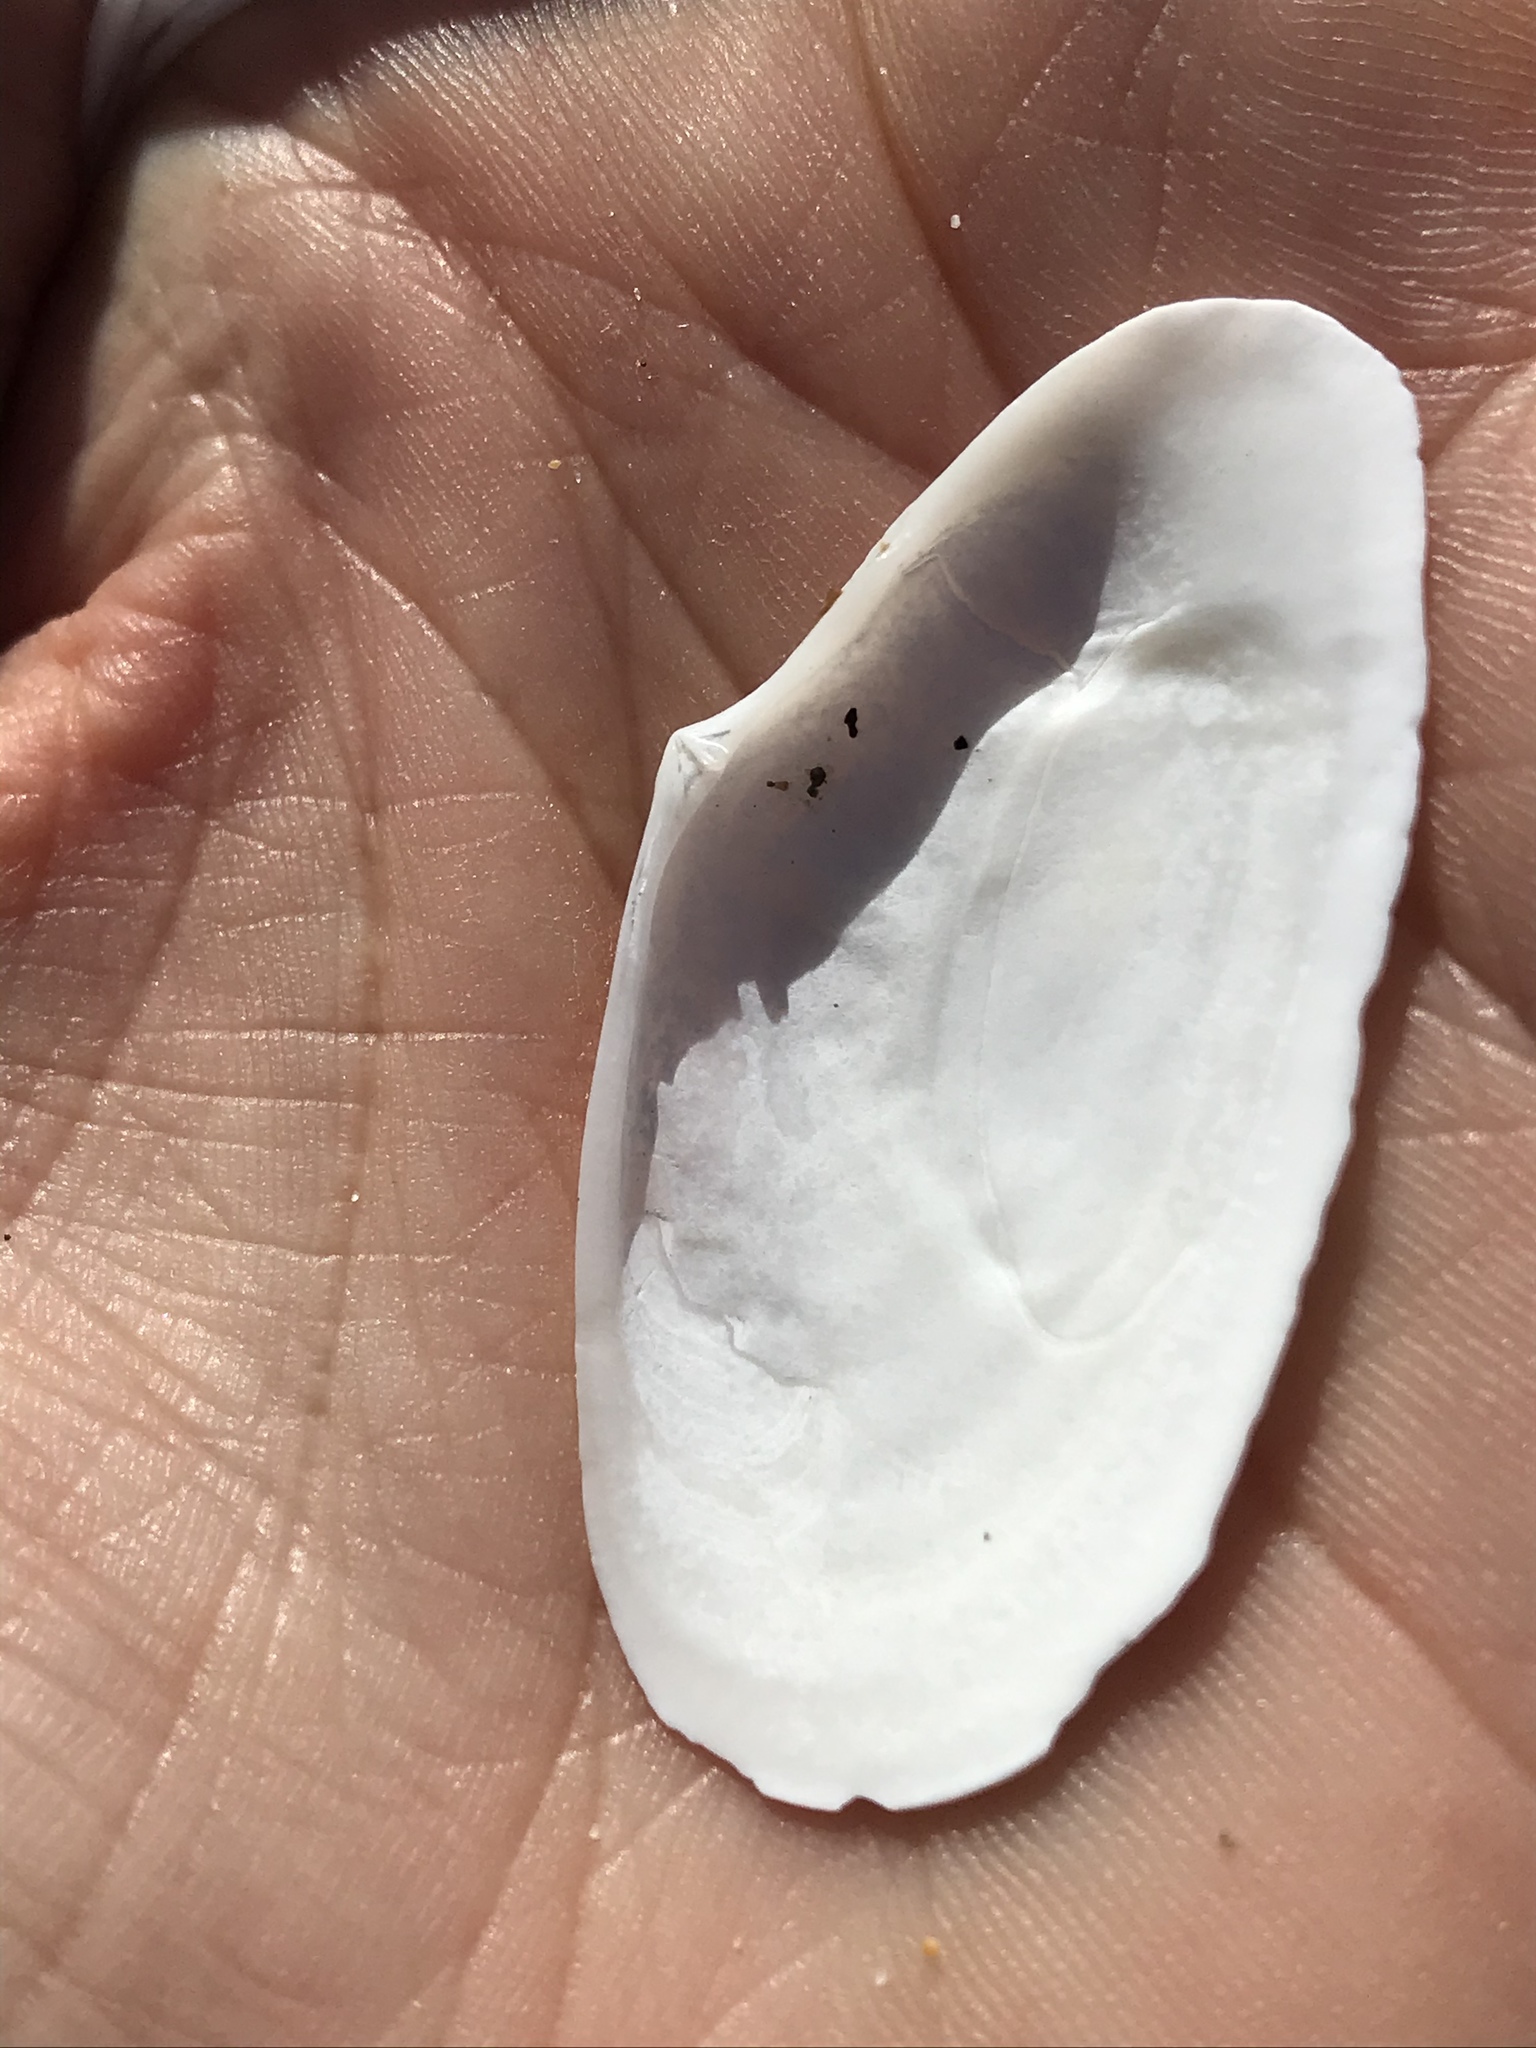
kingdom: Animalia
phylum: Mollusca
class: Bivalvia
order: Cardiida
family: Tellinidae
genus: Megangulus
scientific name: Megangulus bodegensis
